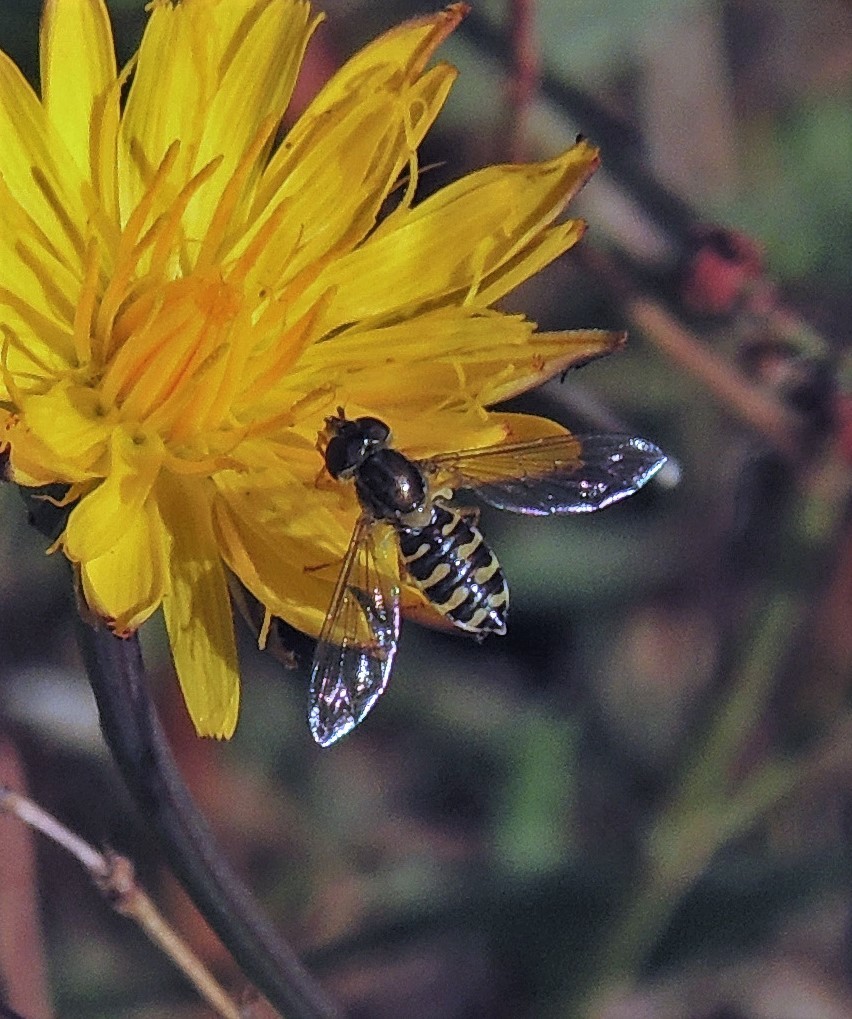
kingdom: Animalia
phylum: Arthropoda
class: Insecta
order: Diptera
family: Syrphidae
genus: Toxomerus
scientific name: Toxomerus vertebratus
